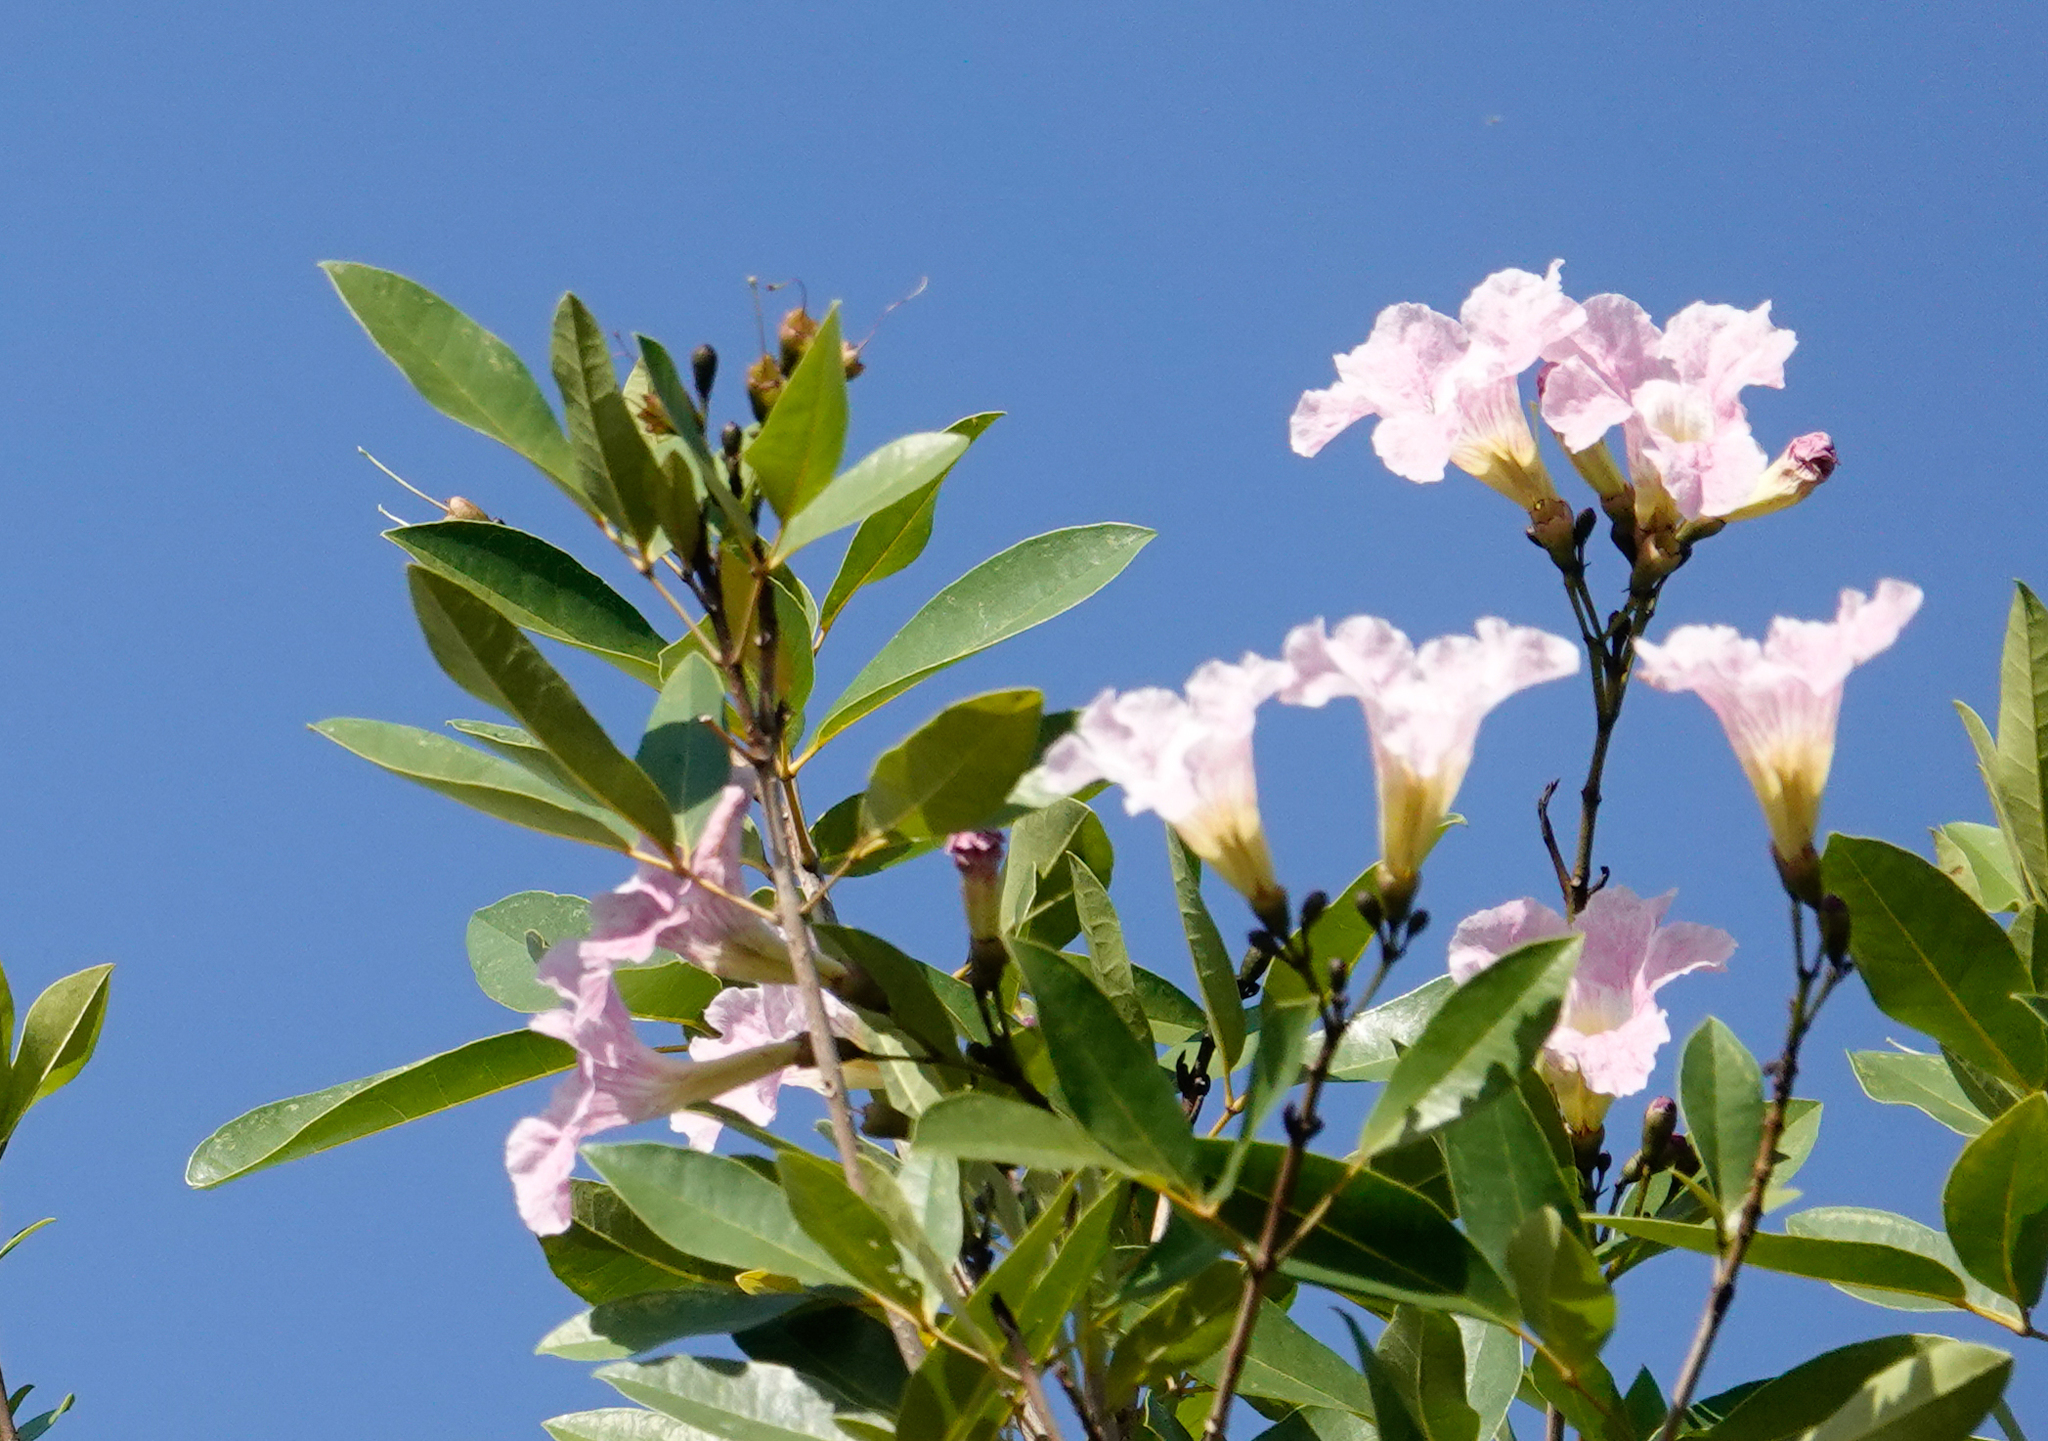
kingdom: Plantae
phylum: Tracheophyta
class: Magnoliopsida
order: Lamiales
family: Bignoniaceae
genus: Tabebuia
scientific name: Tabebuia heterophylla
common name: White cedar
